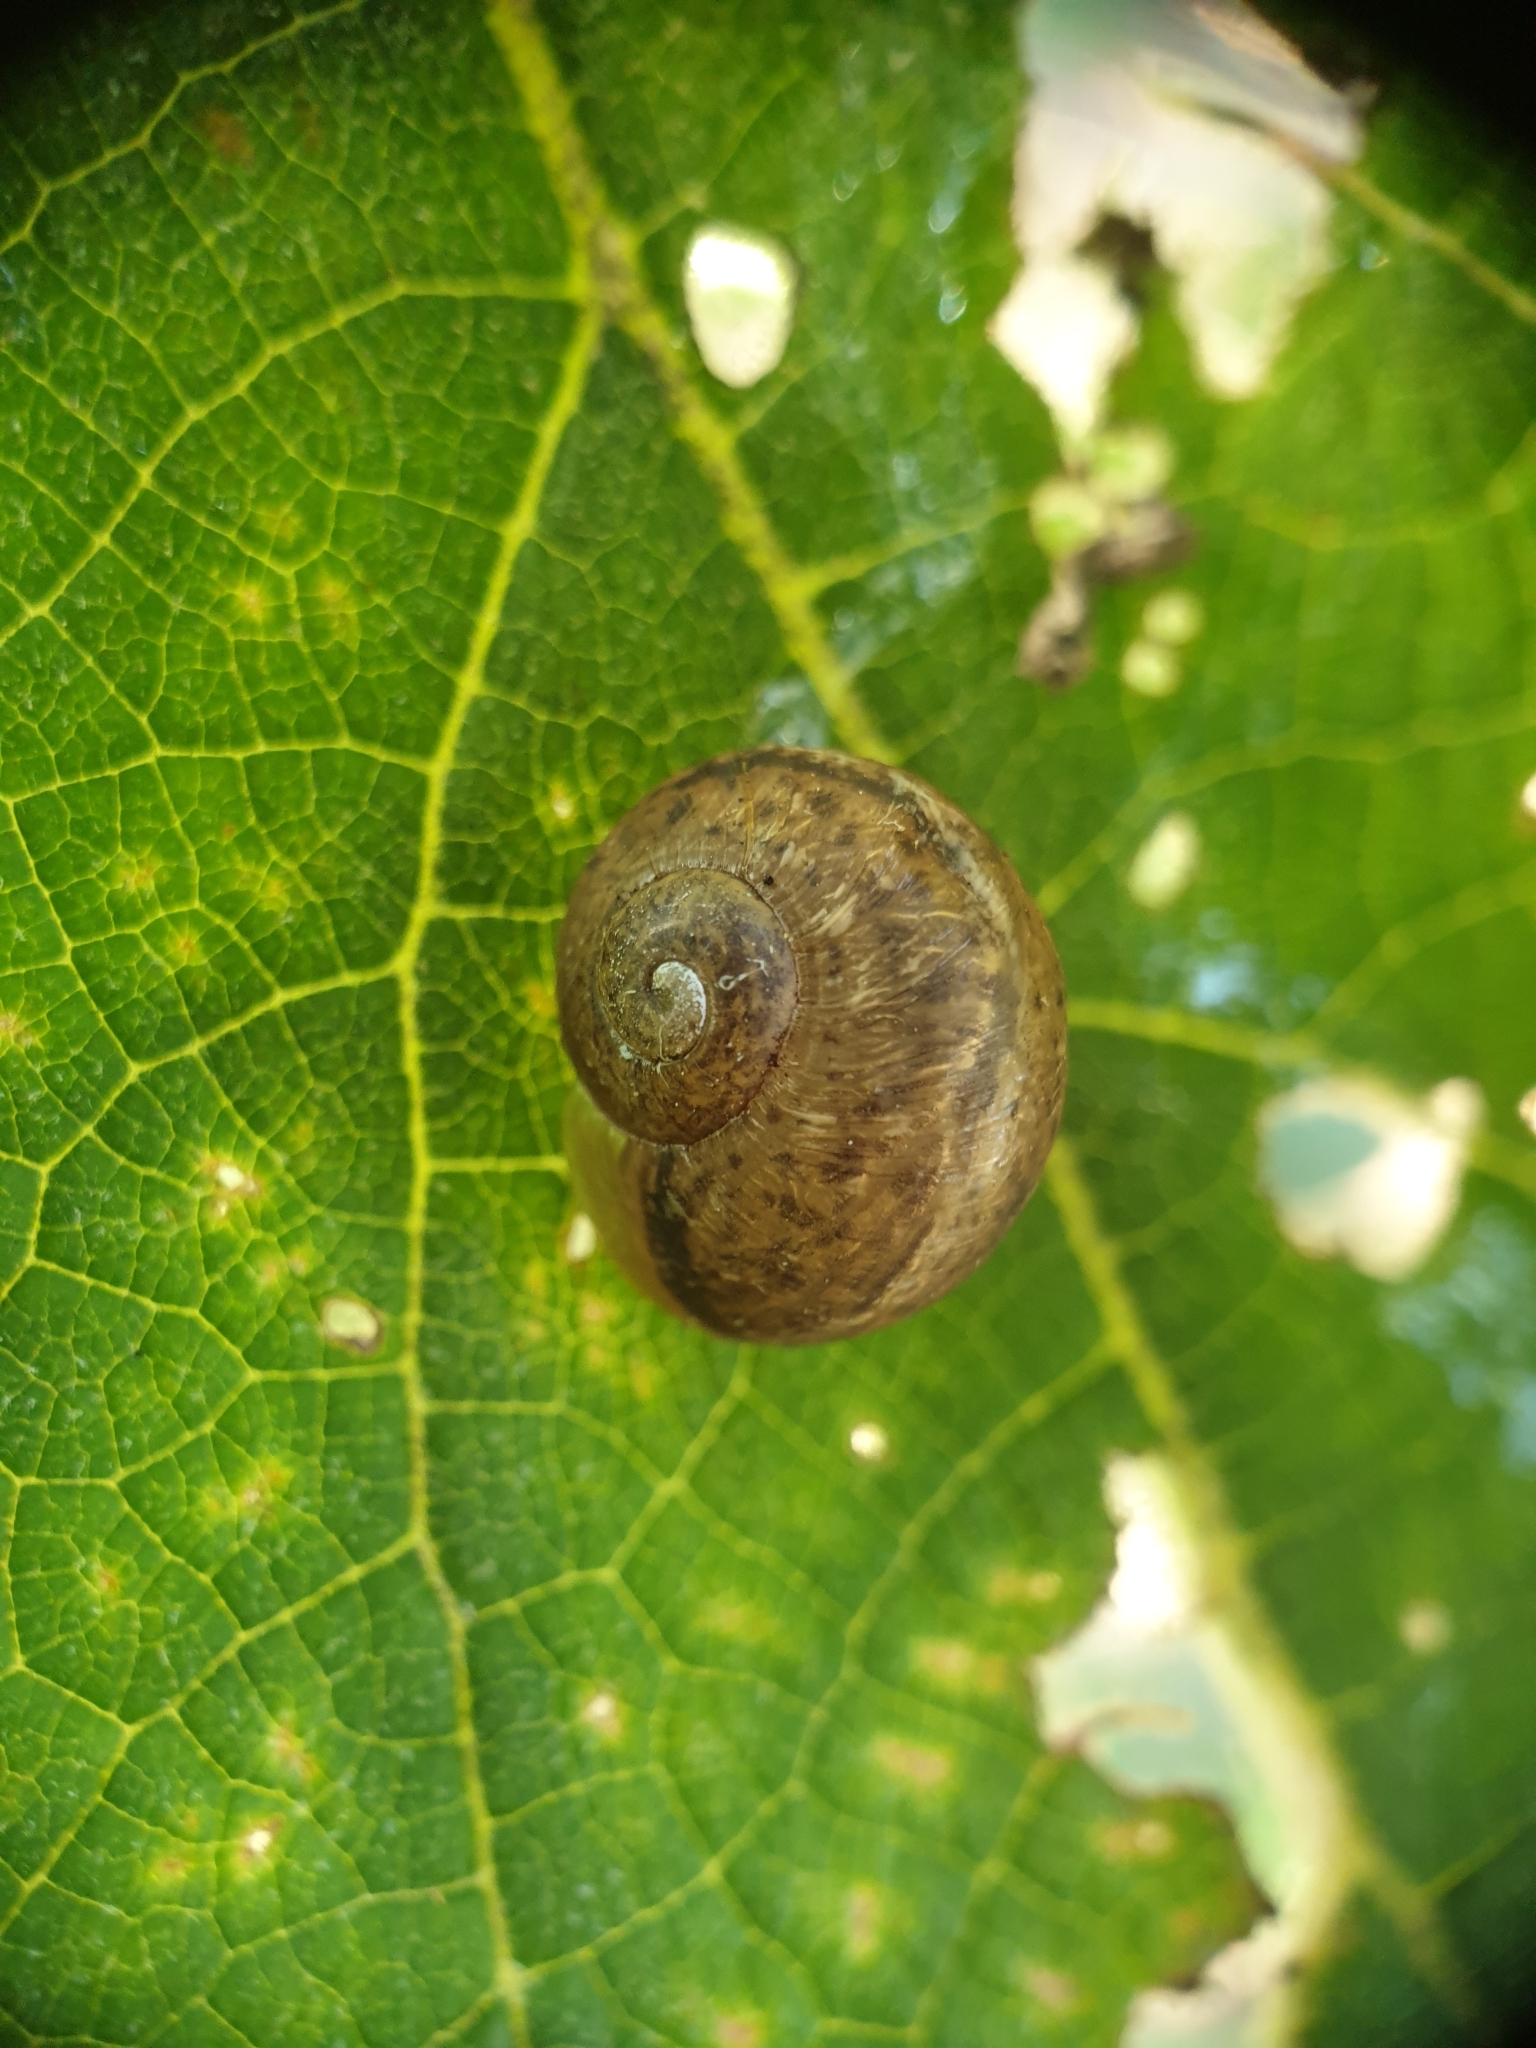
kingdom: Animalia
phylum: Mollusca
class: Gastropoda
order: Stylommatophora
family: Helicidae
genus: Cornu
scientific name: Cornu aspersum
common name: Brown garden snail
